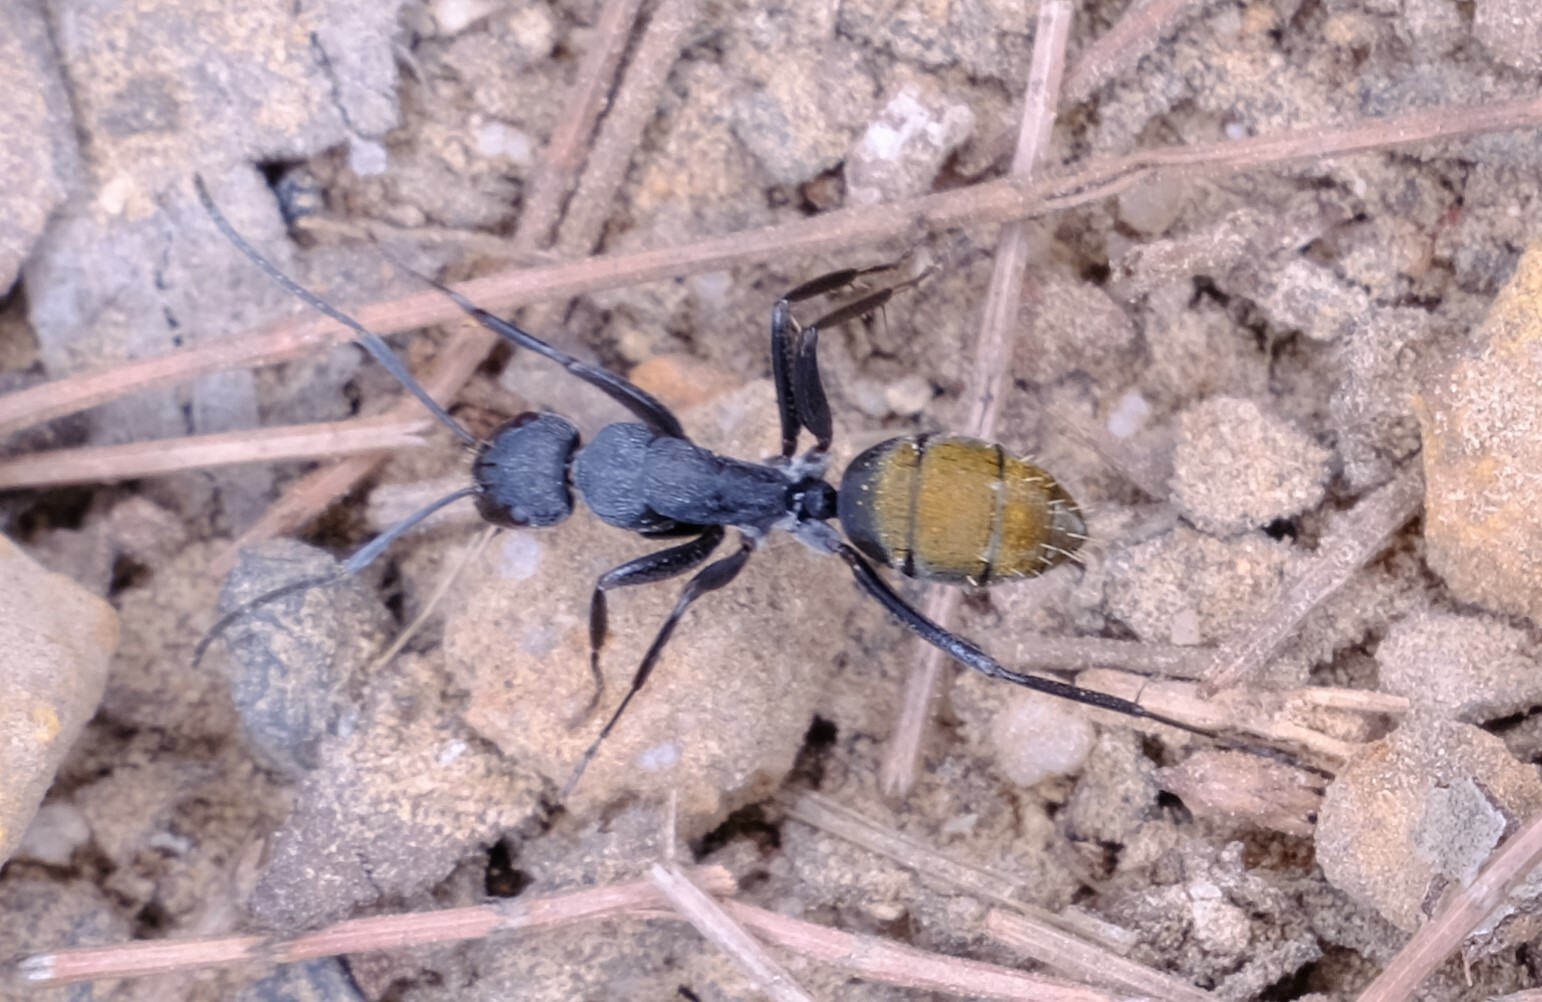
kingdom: Animalia
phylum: Arthropoda
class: Insecta
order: Hymenoptera
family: Formicidae
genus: Camponotus
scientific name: Camponotus aeneopilosus
